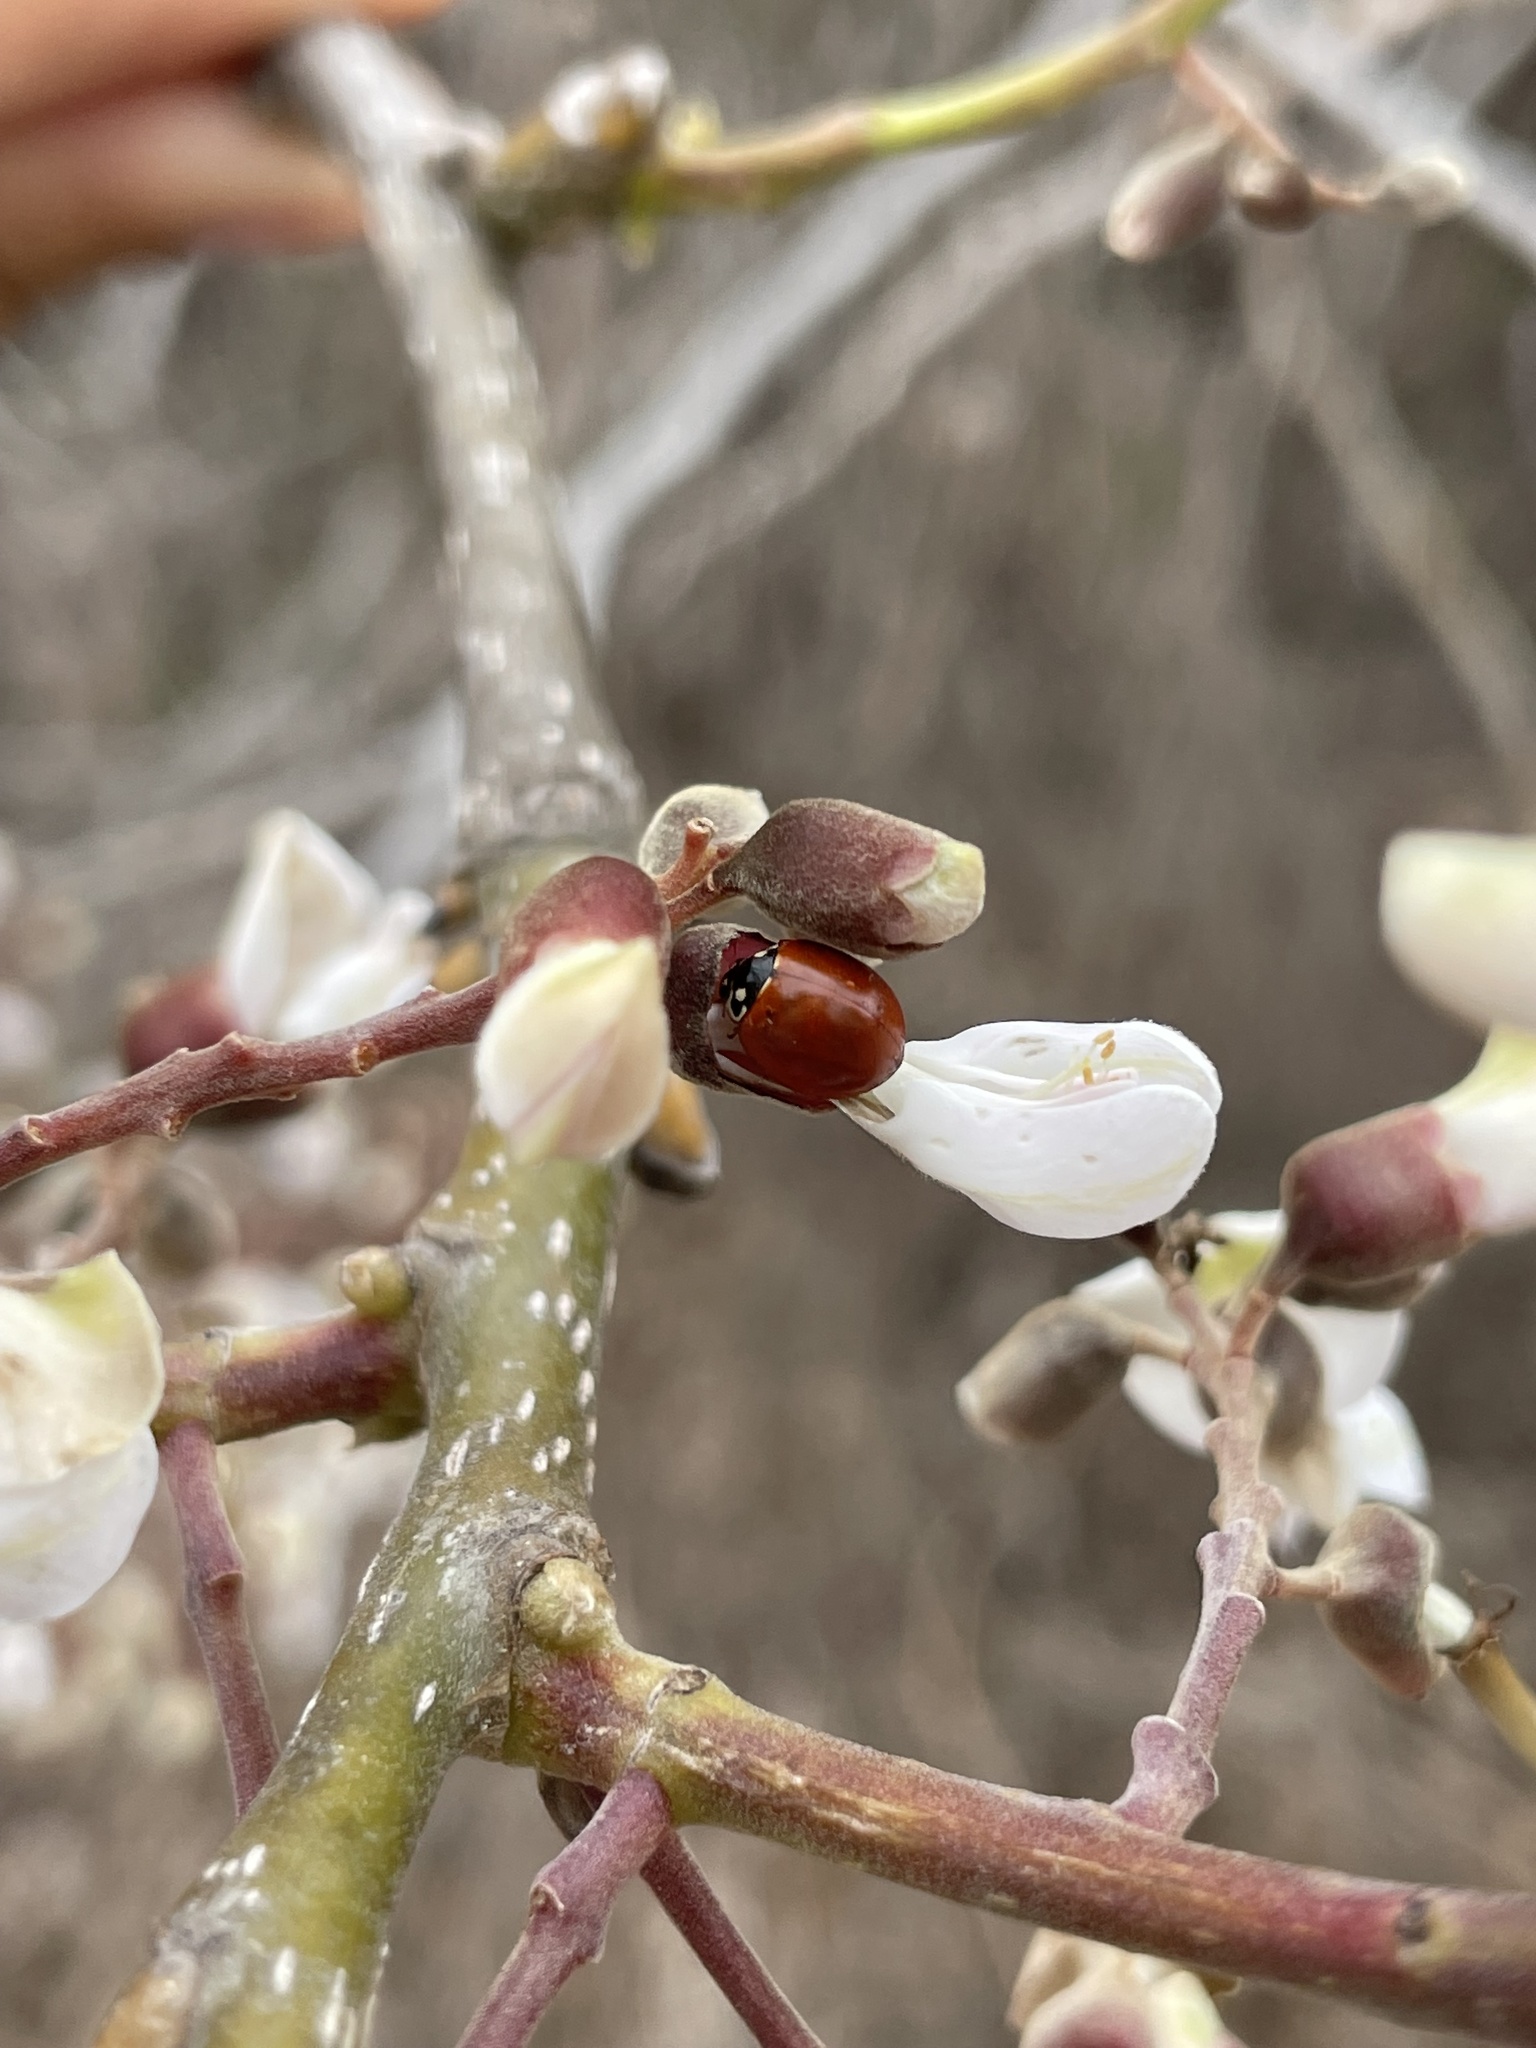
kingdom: Animalia
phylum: Arthropoda
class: Insecta
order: Coleoptera
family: Coccinellidae
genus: Cycloneda
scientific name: Cycloneda sanguinea
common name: Ladybird beetle
